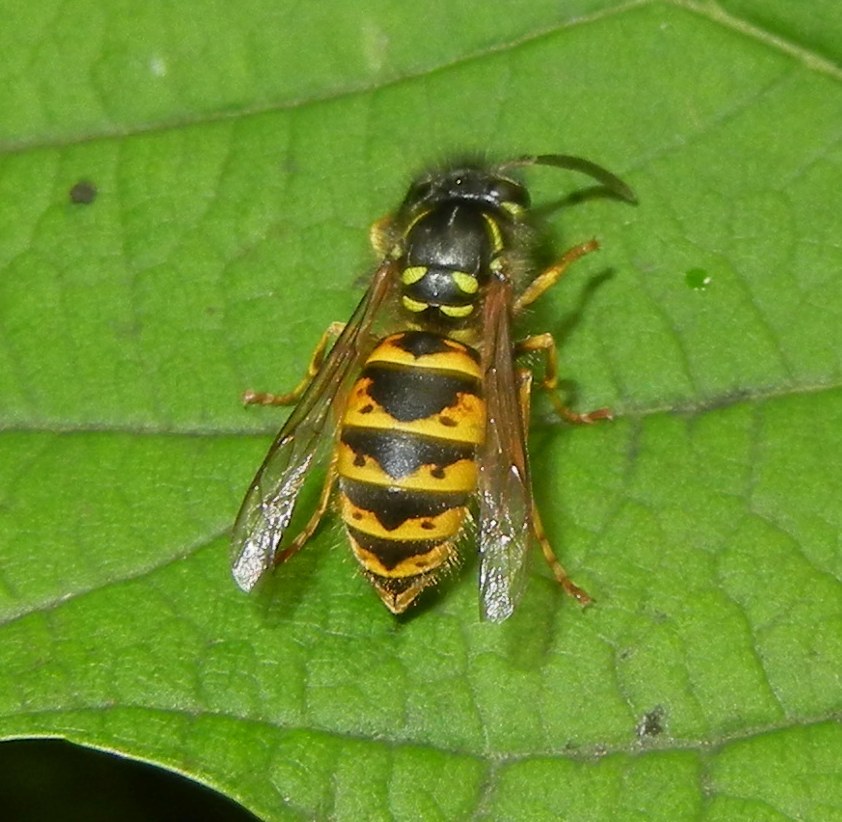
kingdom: Animalia
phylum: Arthropoda
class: Insecta
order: Hymenoptera
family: Vespidae
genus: Vespula
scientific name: Vespula vulgaris
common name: Common wasp
